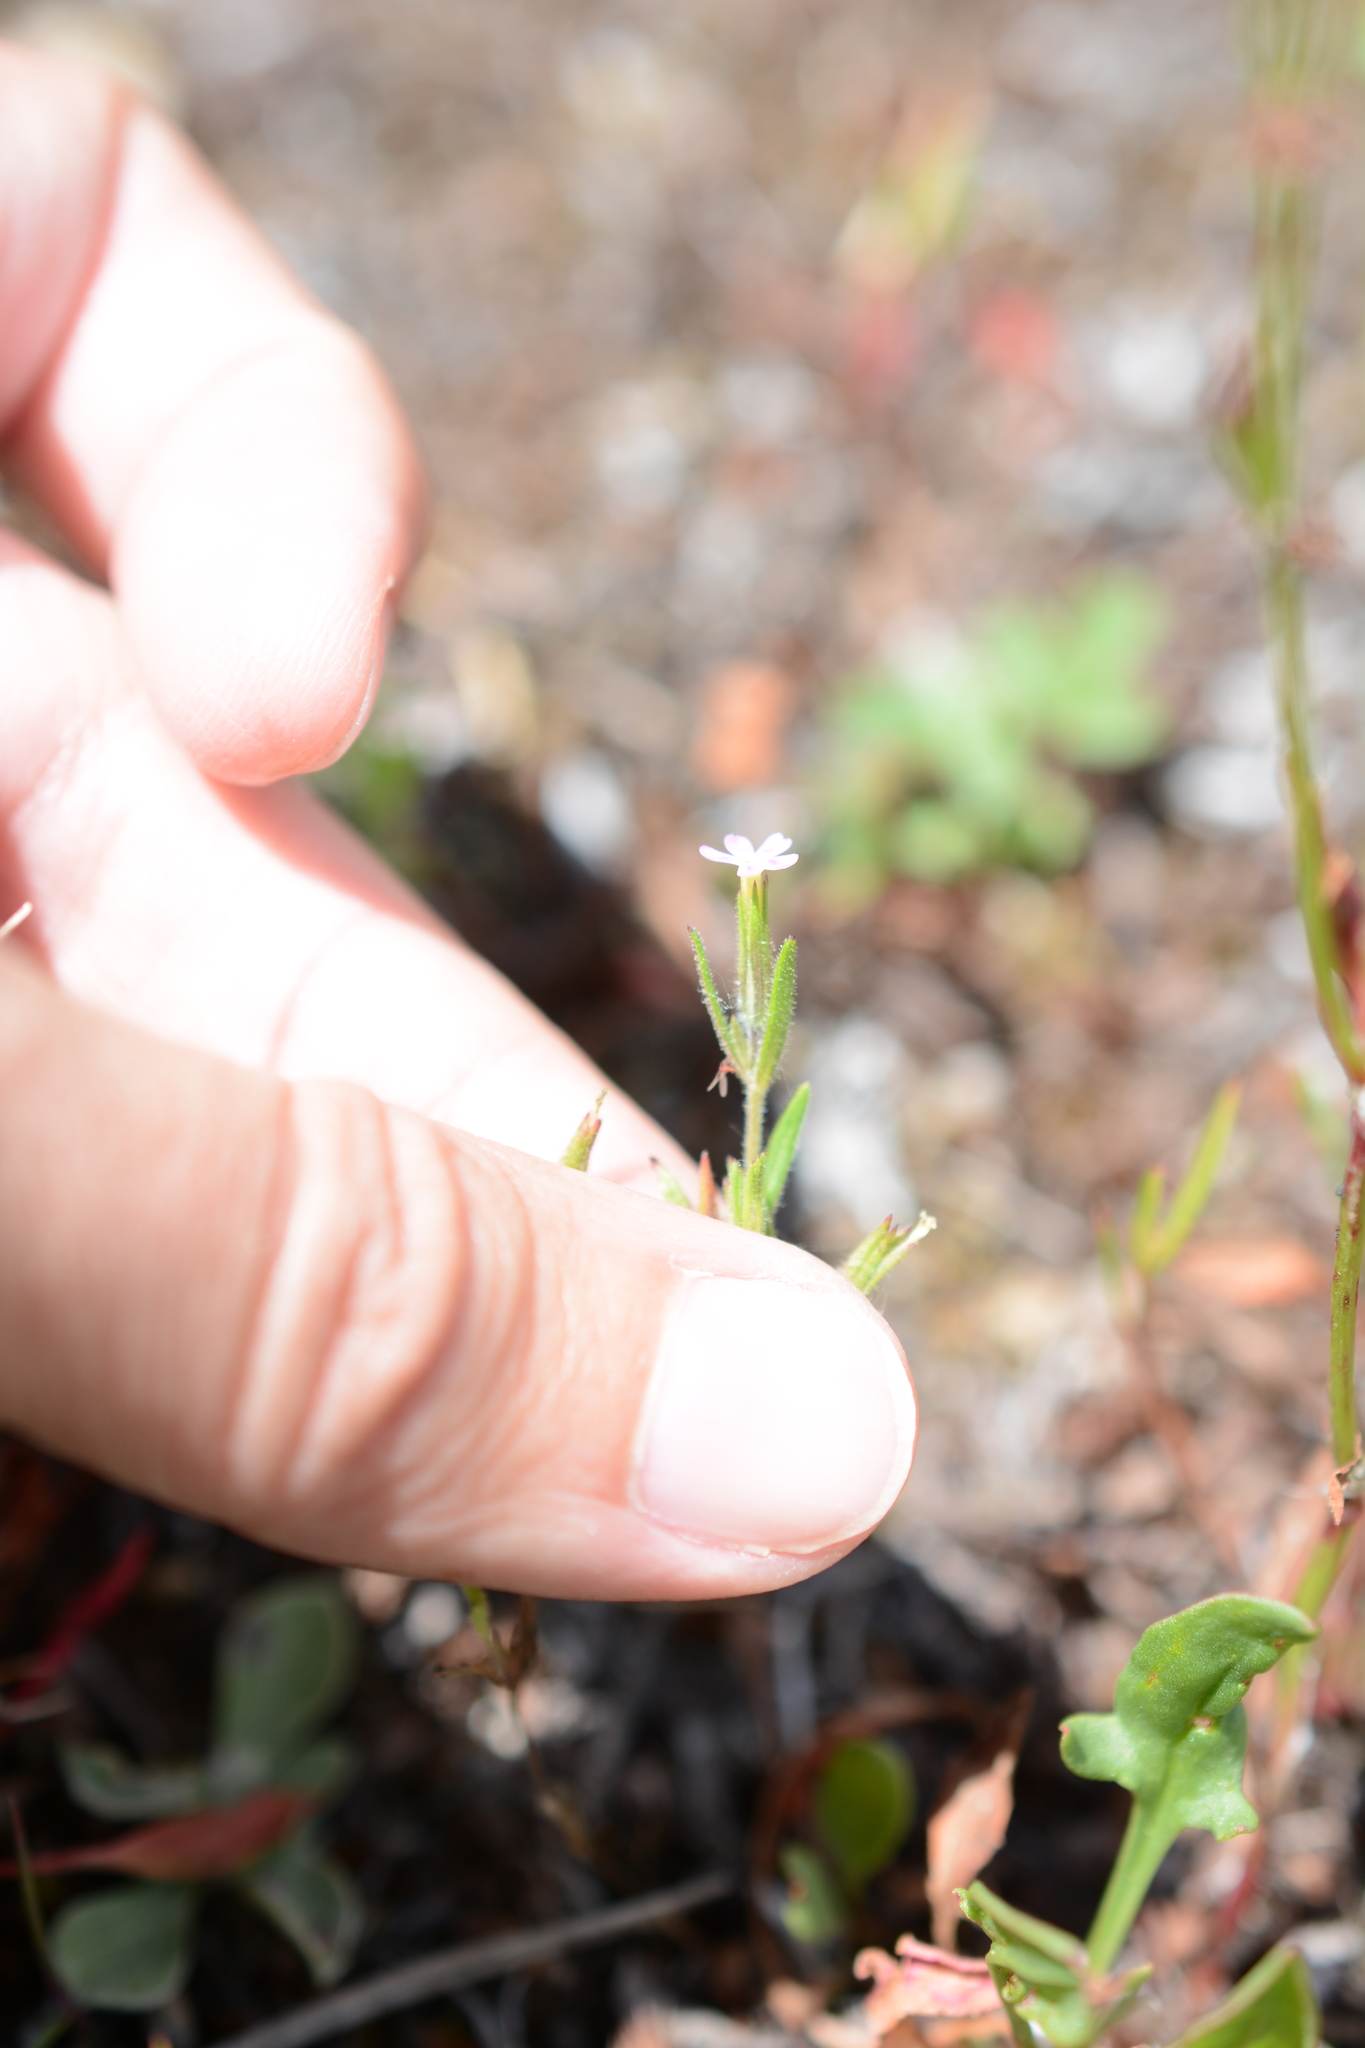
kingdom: Plantae
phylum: Tracheophyta
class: Magnoliopsida
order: Ericales
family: Polemoniaceae
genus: Phlox
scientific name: Phlox gracilis
